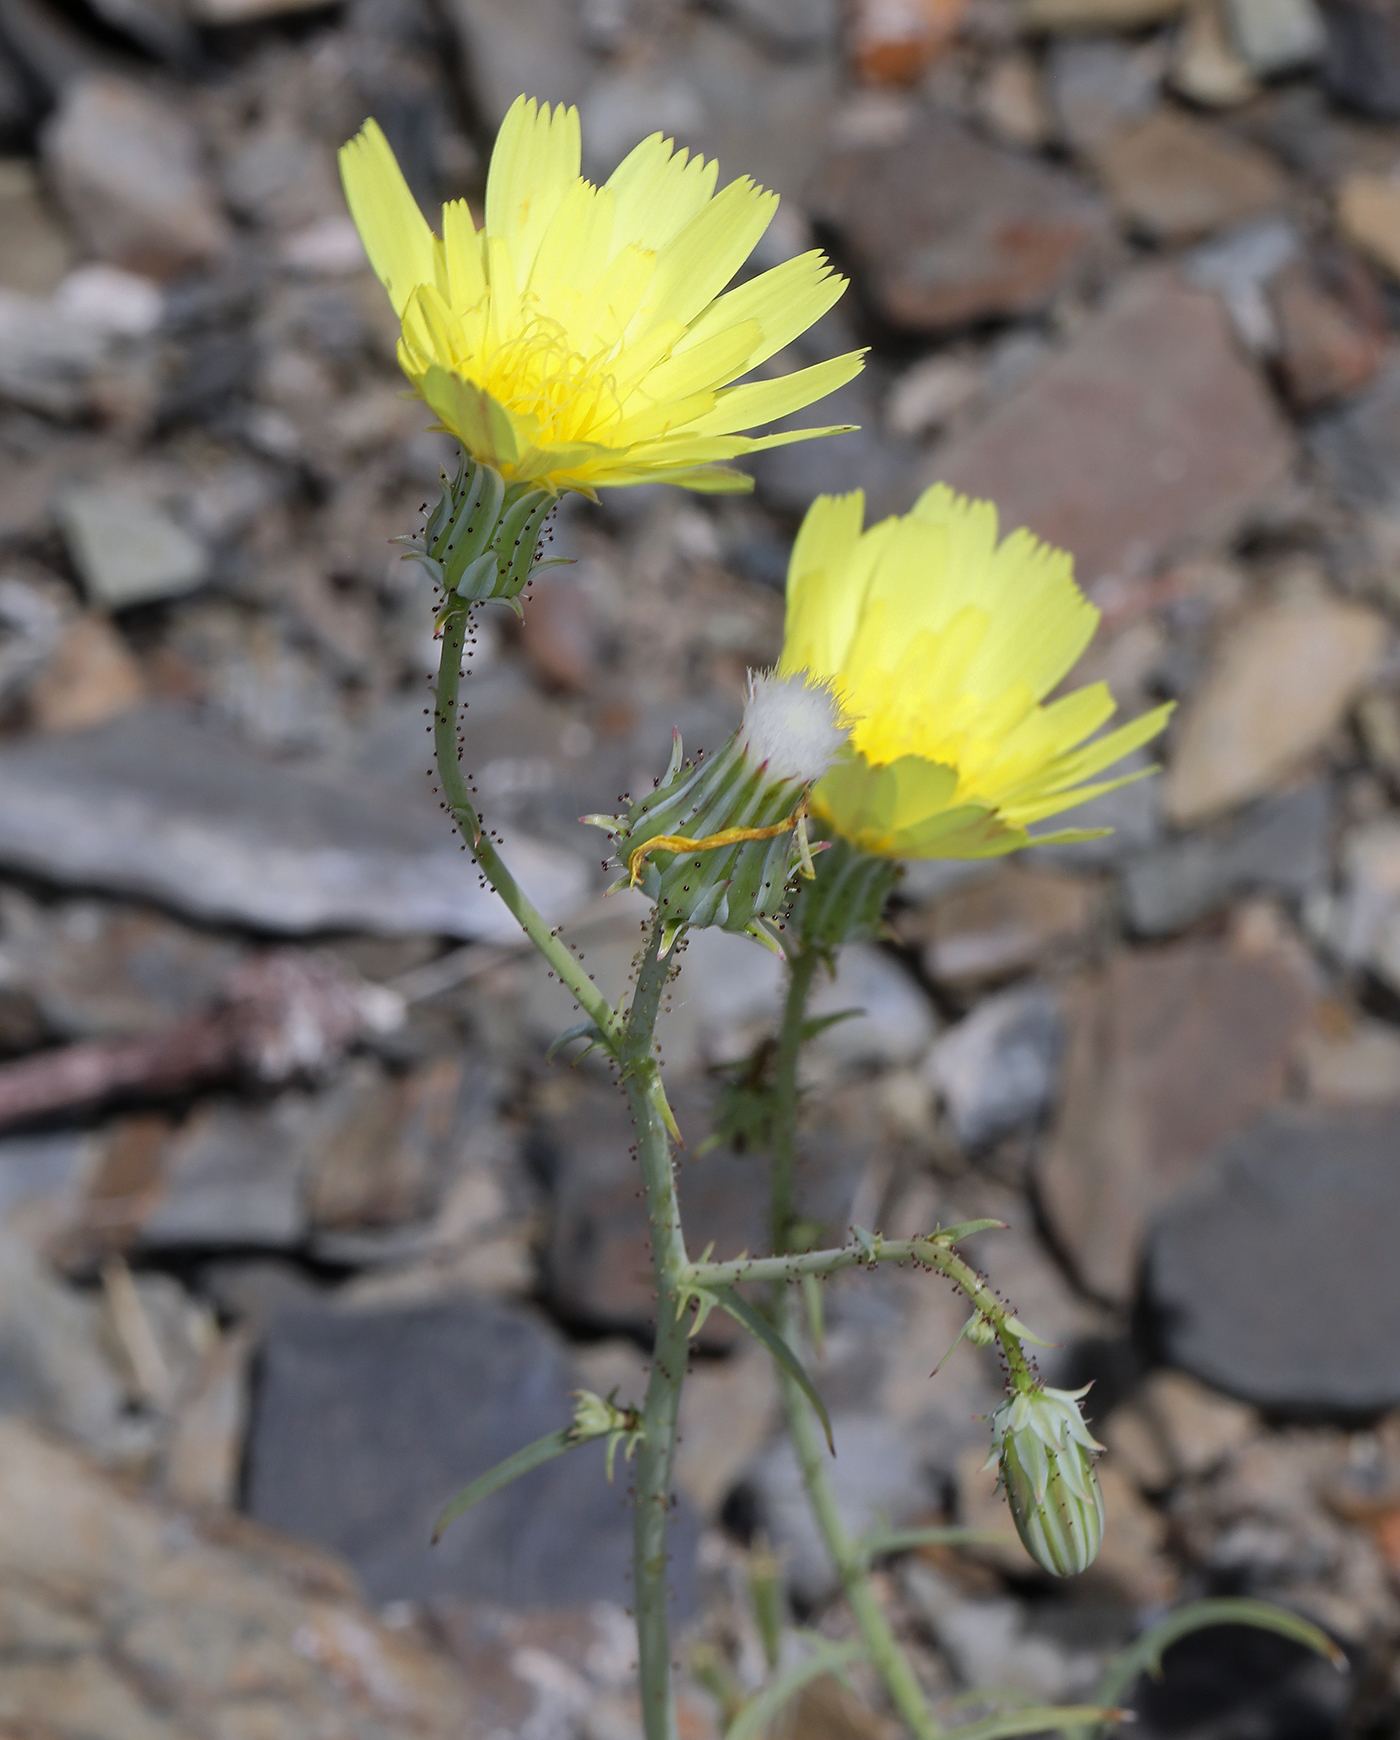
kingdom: Plantae
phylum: Tracheophyta
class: Magnoliopsida
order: Asterales
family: Asteraceae
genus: Calycoseris
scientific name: Calycoseris parryi
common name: Yellow tackstem
